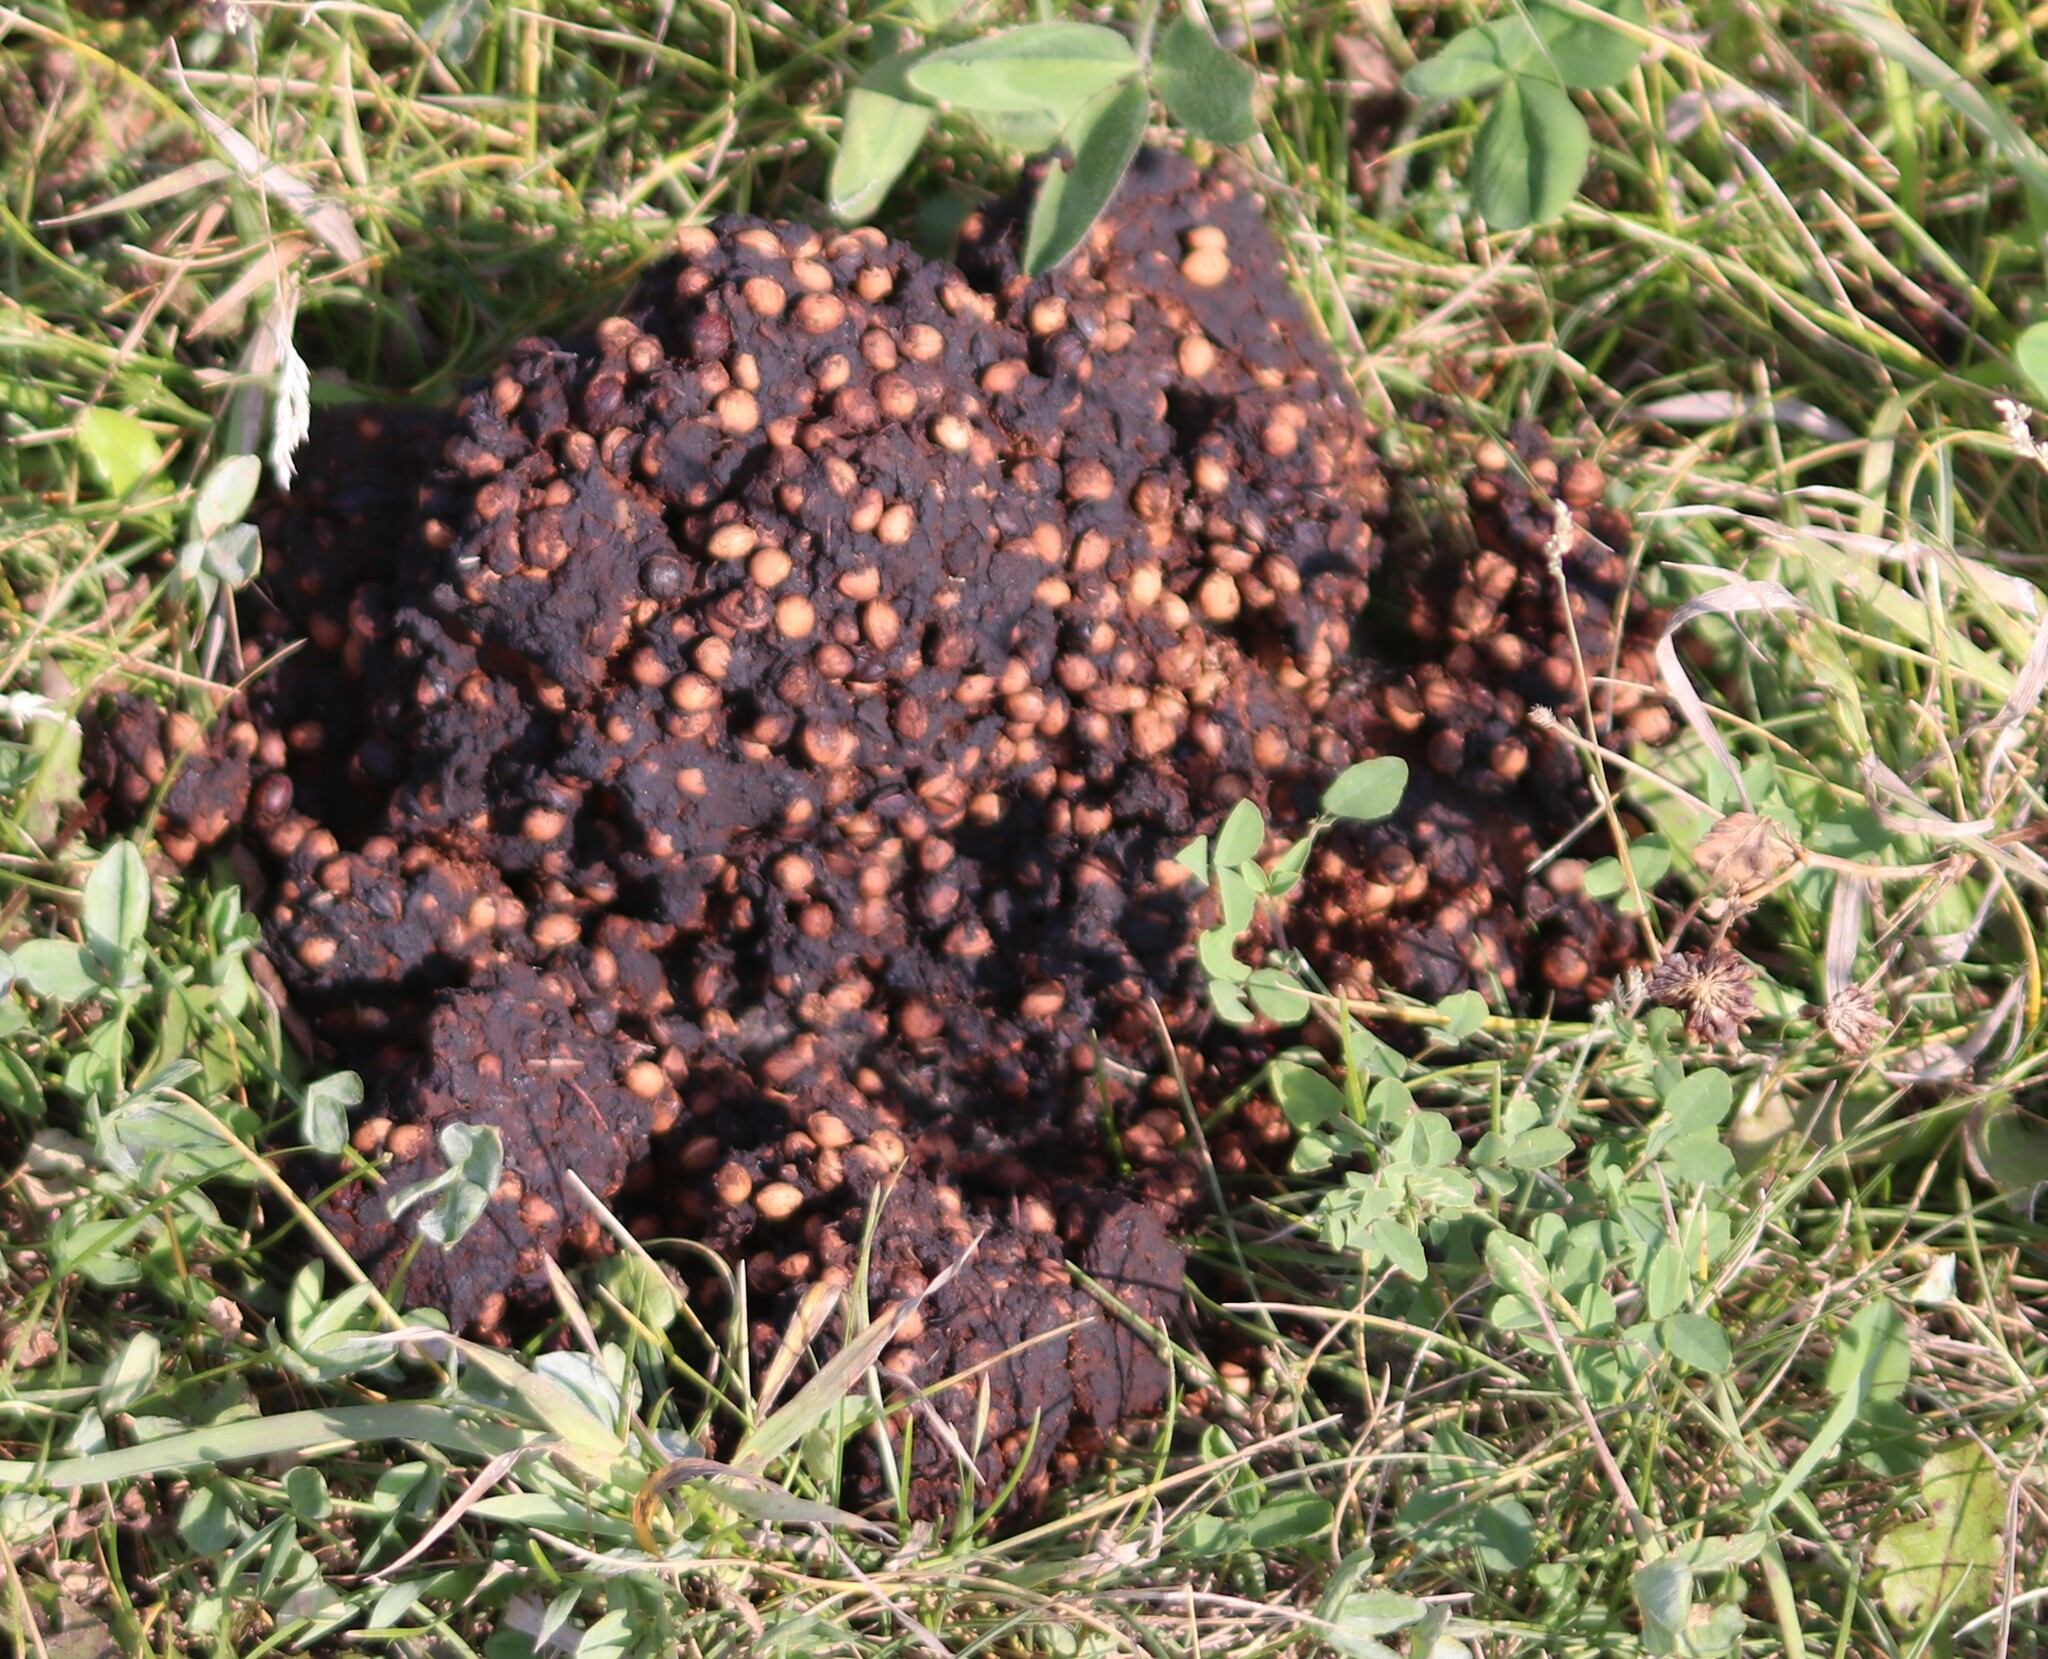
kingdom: Animalia
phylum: Chordata
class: Mammalia
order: Carnivora
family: Ursidae
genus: Ursus
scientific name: Ursus americanus
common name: American black bear
